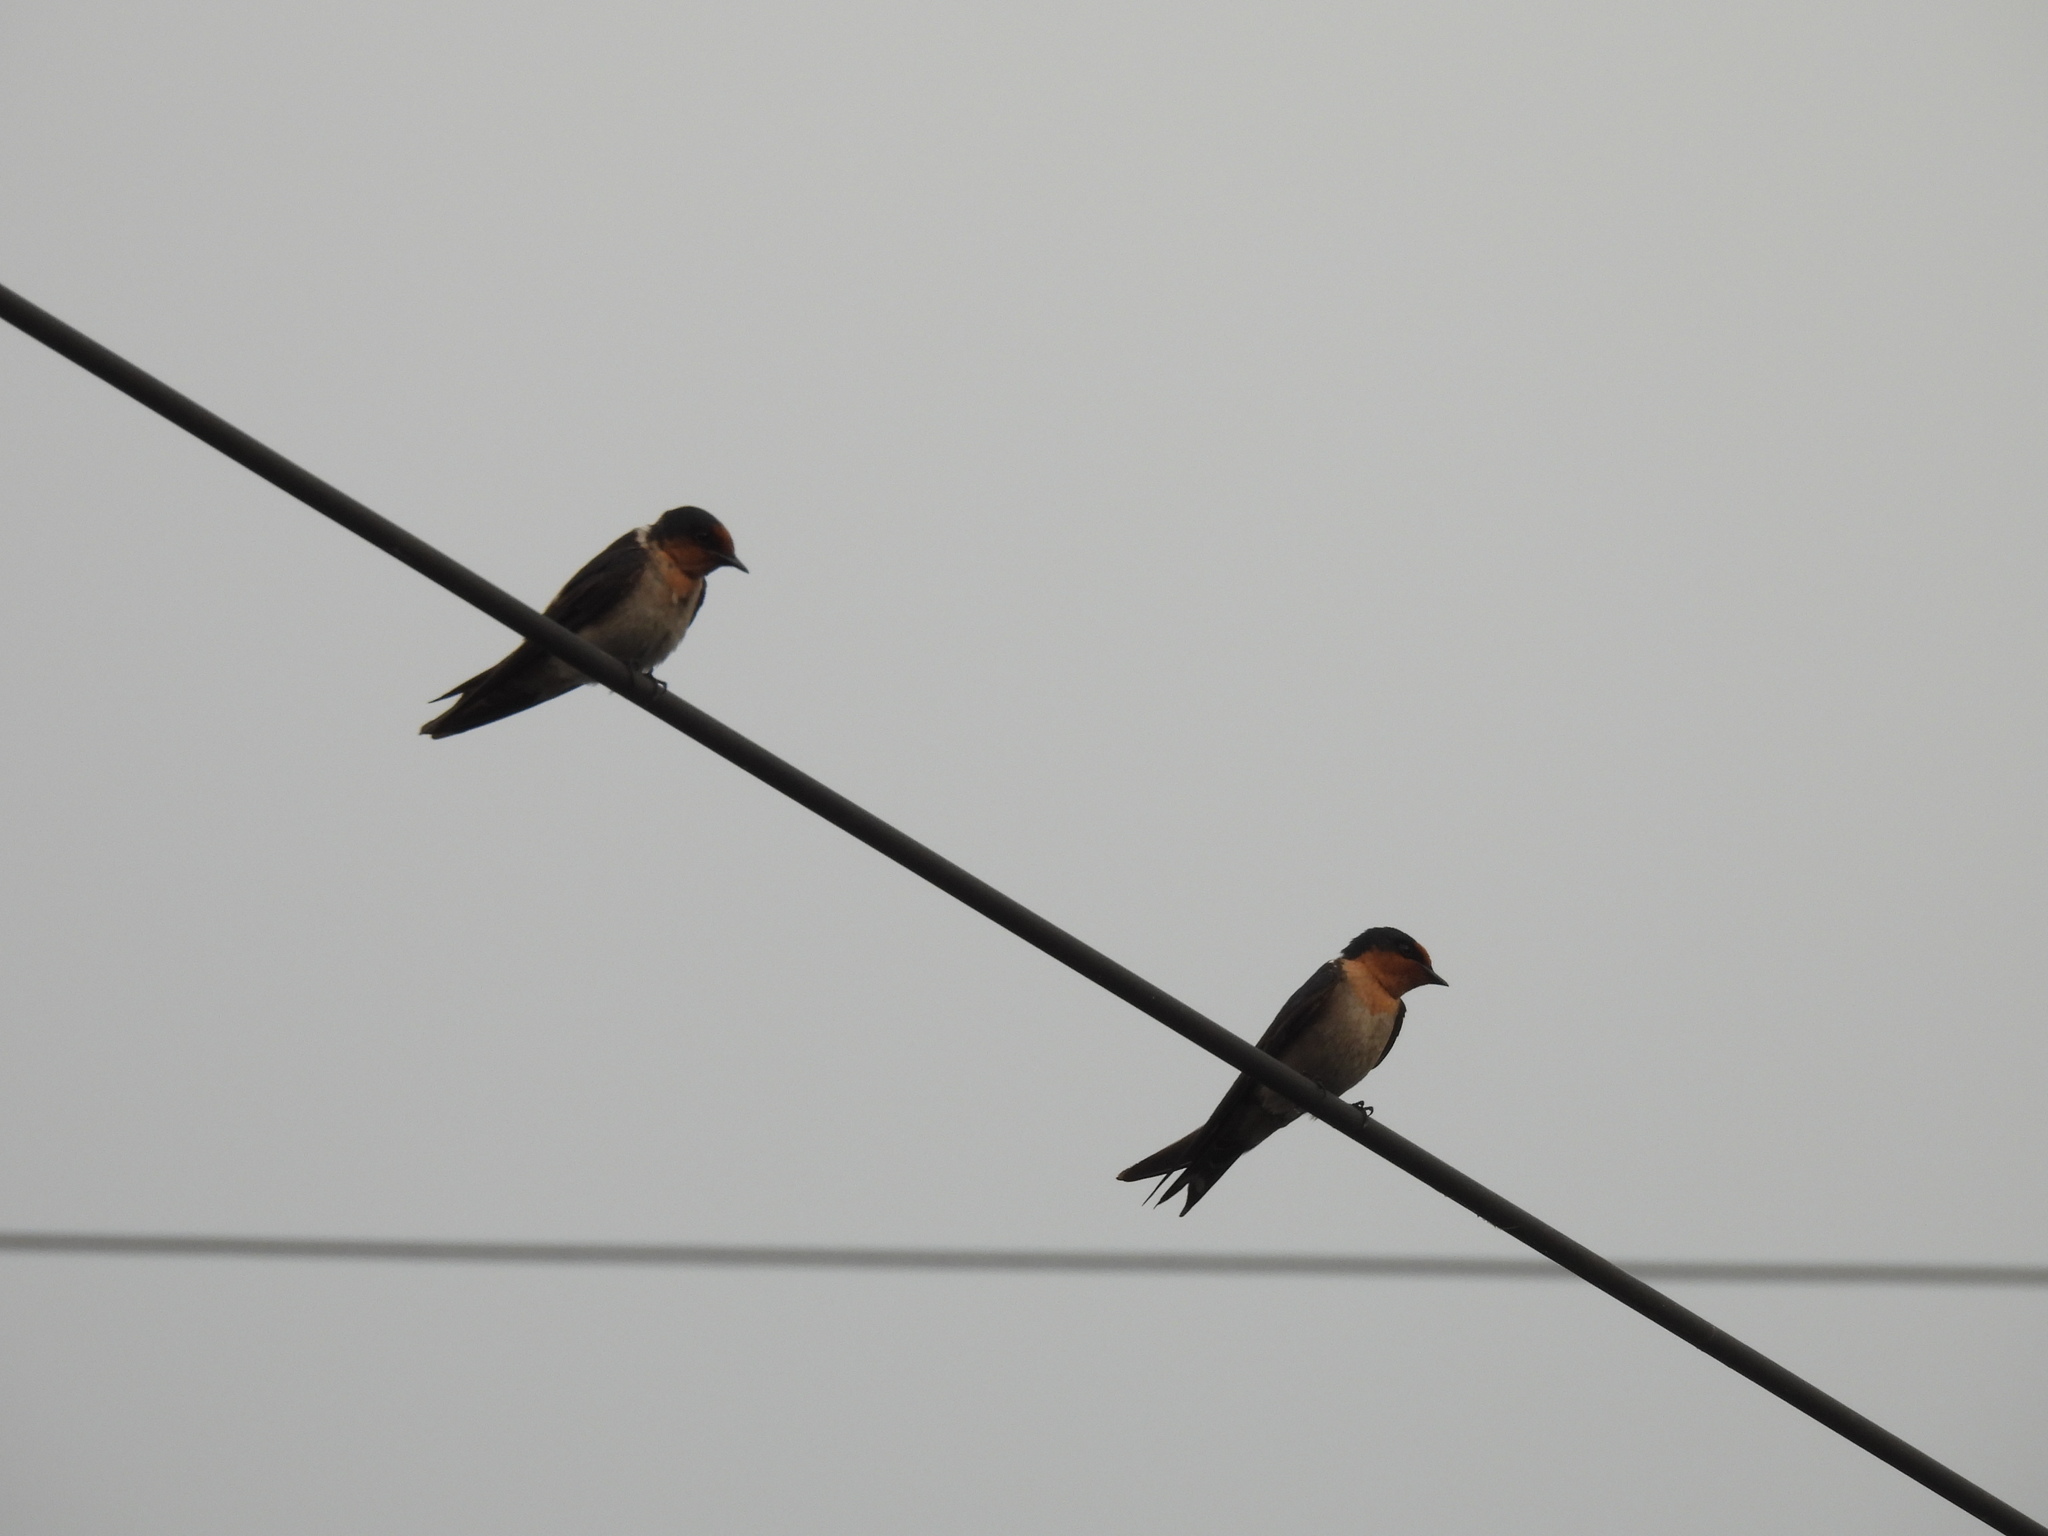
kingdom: Animalia
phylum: Chordata
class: Aves
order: Passeriformes
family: Hirundinidae
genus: Hirundo
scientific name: Hirundo tahitica
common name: Pacific swallow
